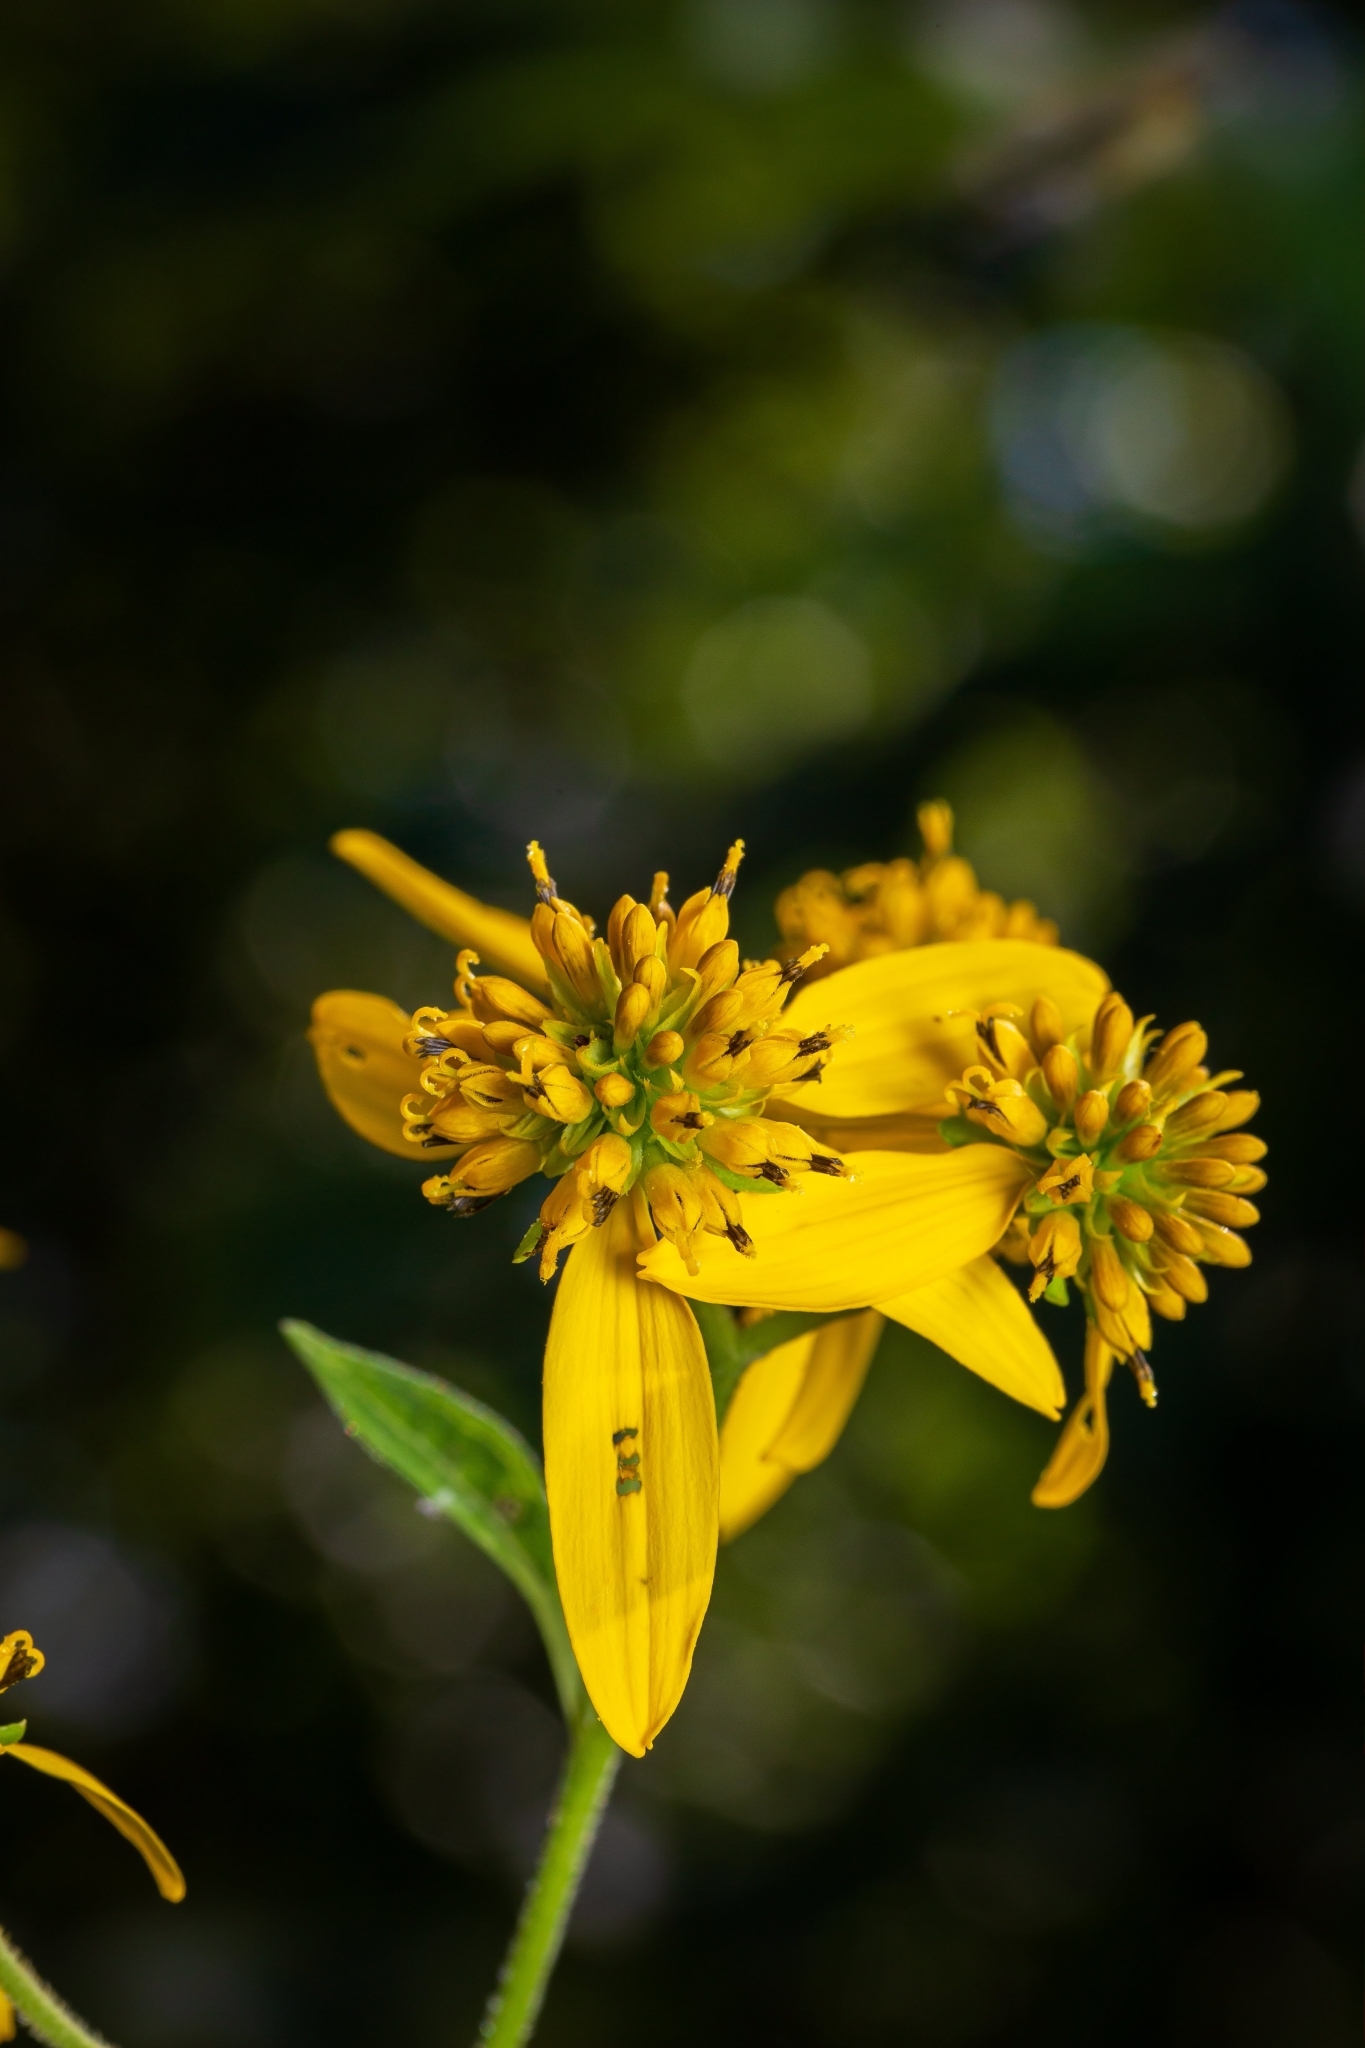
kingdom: Plantae
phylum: Tracheophyta
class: Magnoliopsida
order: Asterales
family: Asteraceae
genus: Verbesina
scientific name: Verbesina alternifolia
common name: Wingstem
